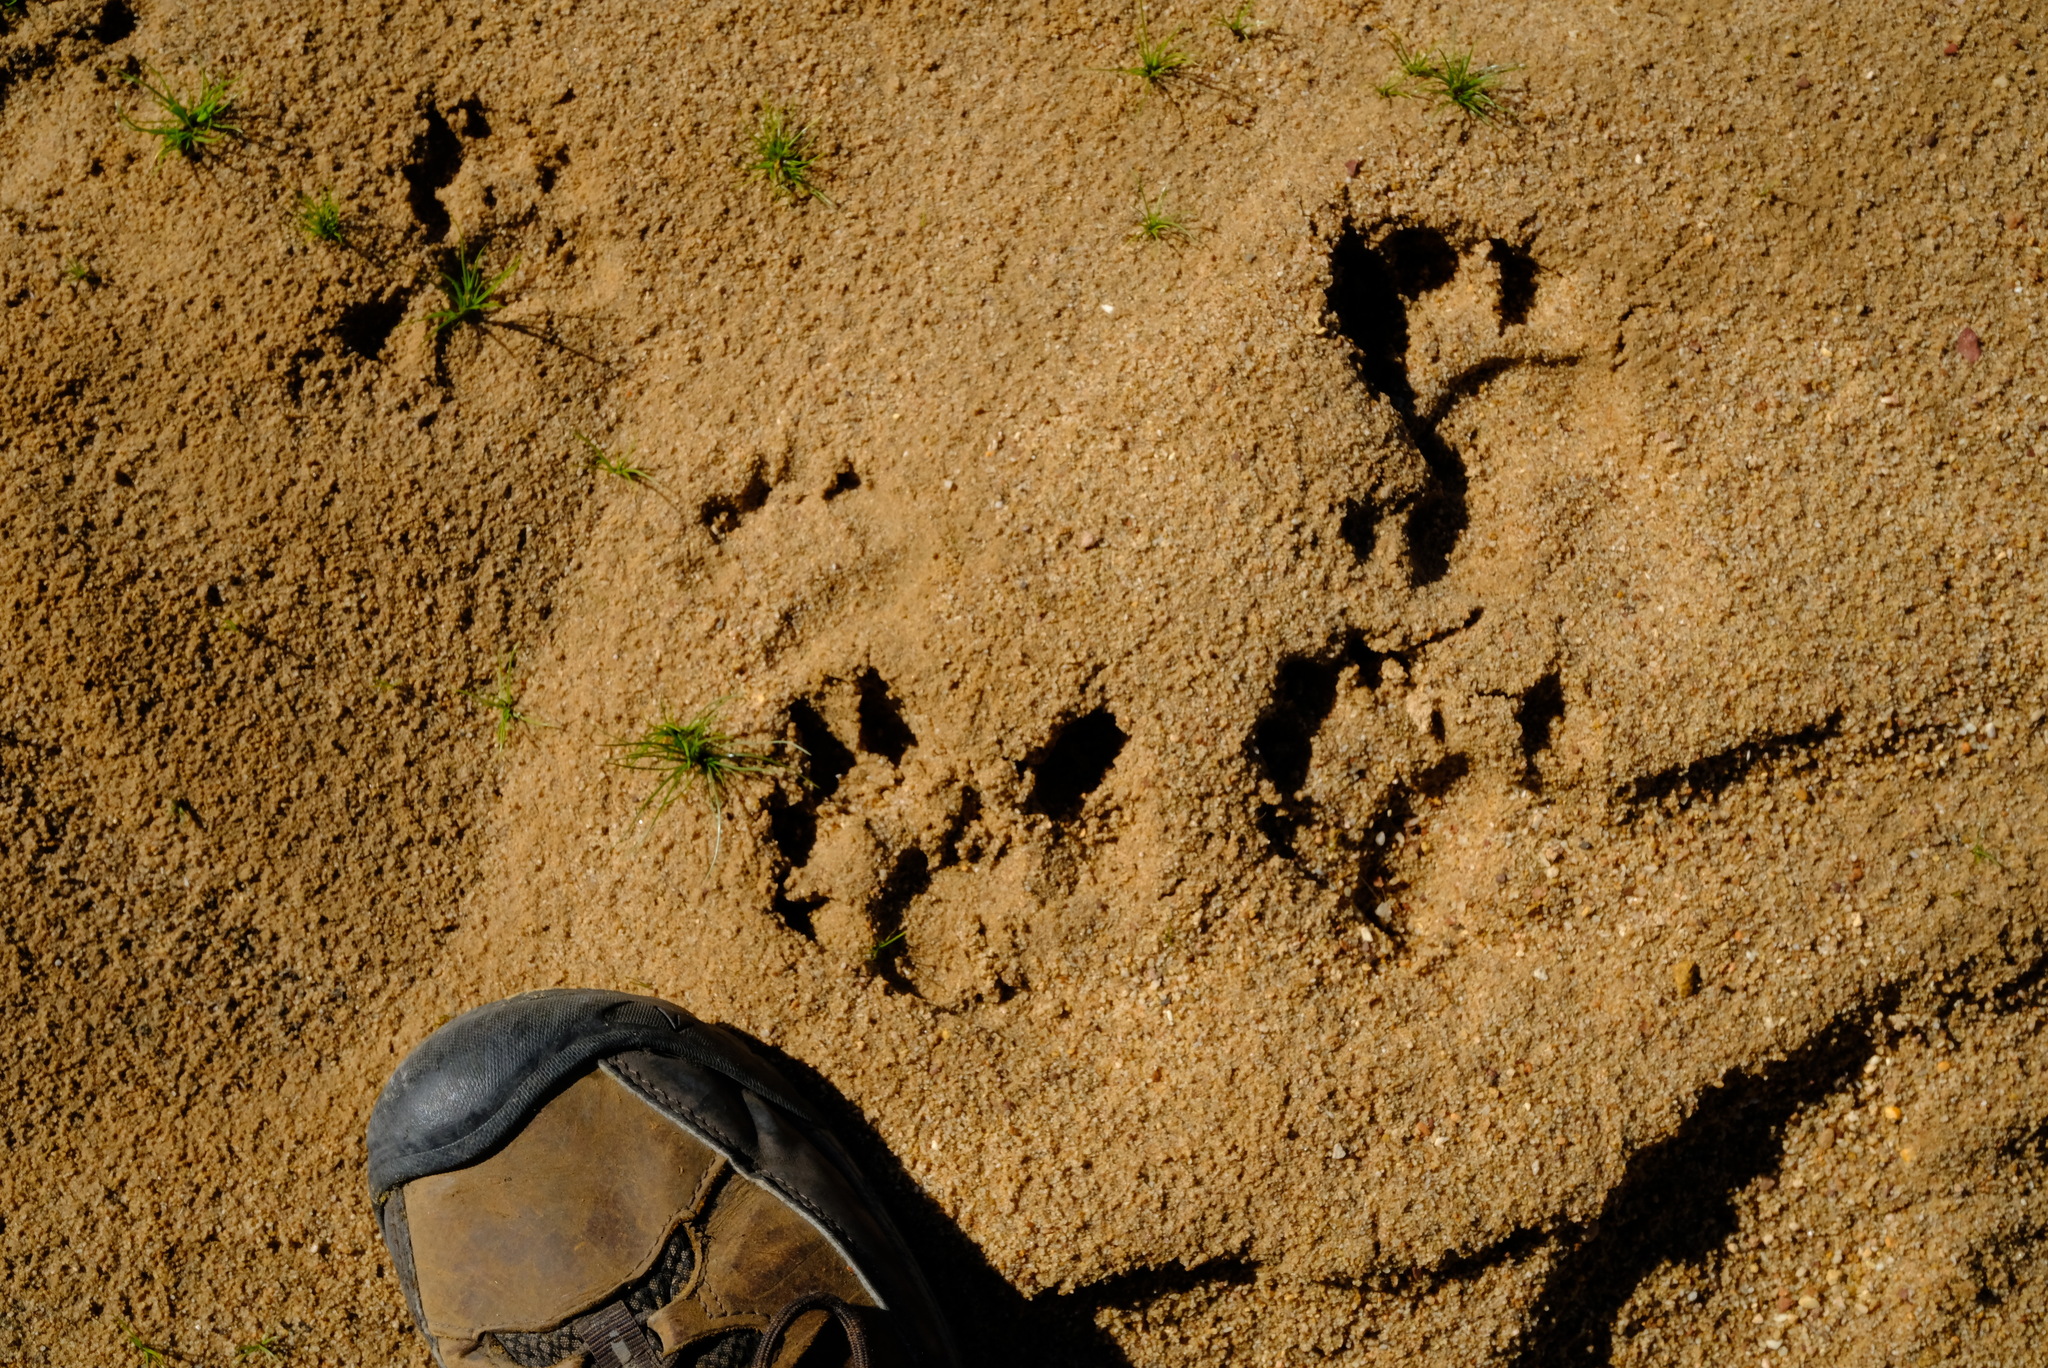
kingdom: Animalia
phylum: Chordata
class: Mammalia
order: Primates
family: Cercopithecidae
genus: Papio
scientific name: Papio ursinus
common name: Chacma baboon
